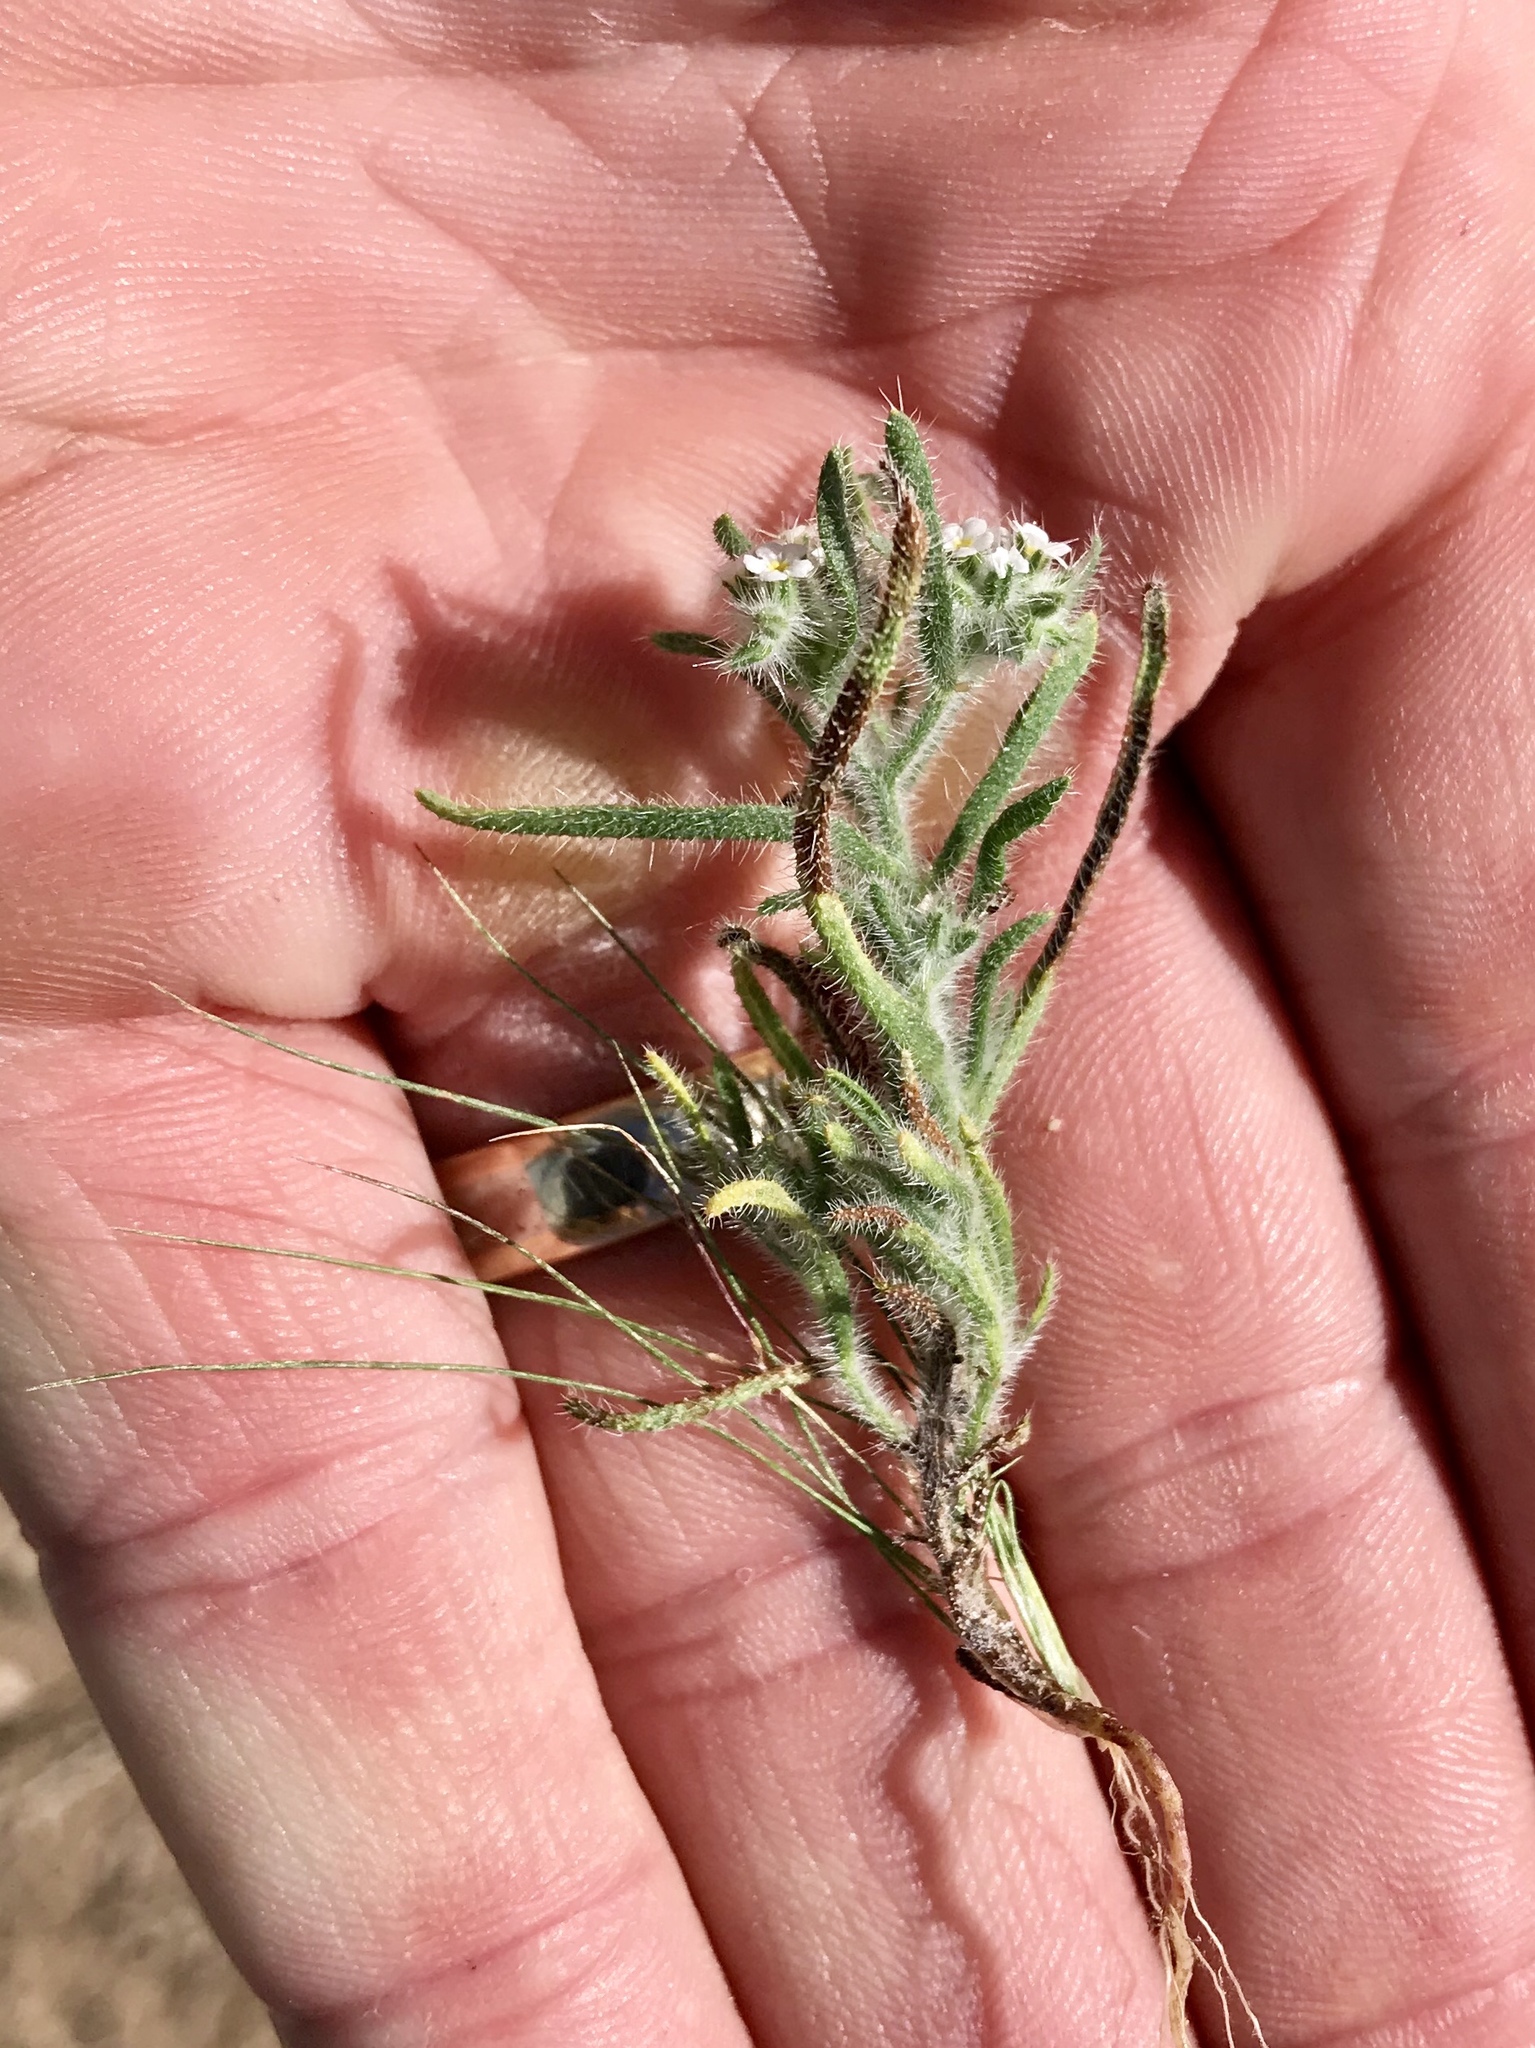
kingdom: Plantae
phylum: Tracheophyta
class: Magnoliopsida
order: Boraginales
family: Boraginaceae
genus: Johnstonella
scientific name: Johnstonella angustifolia
